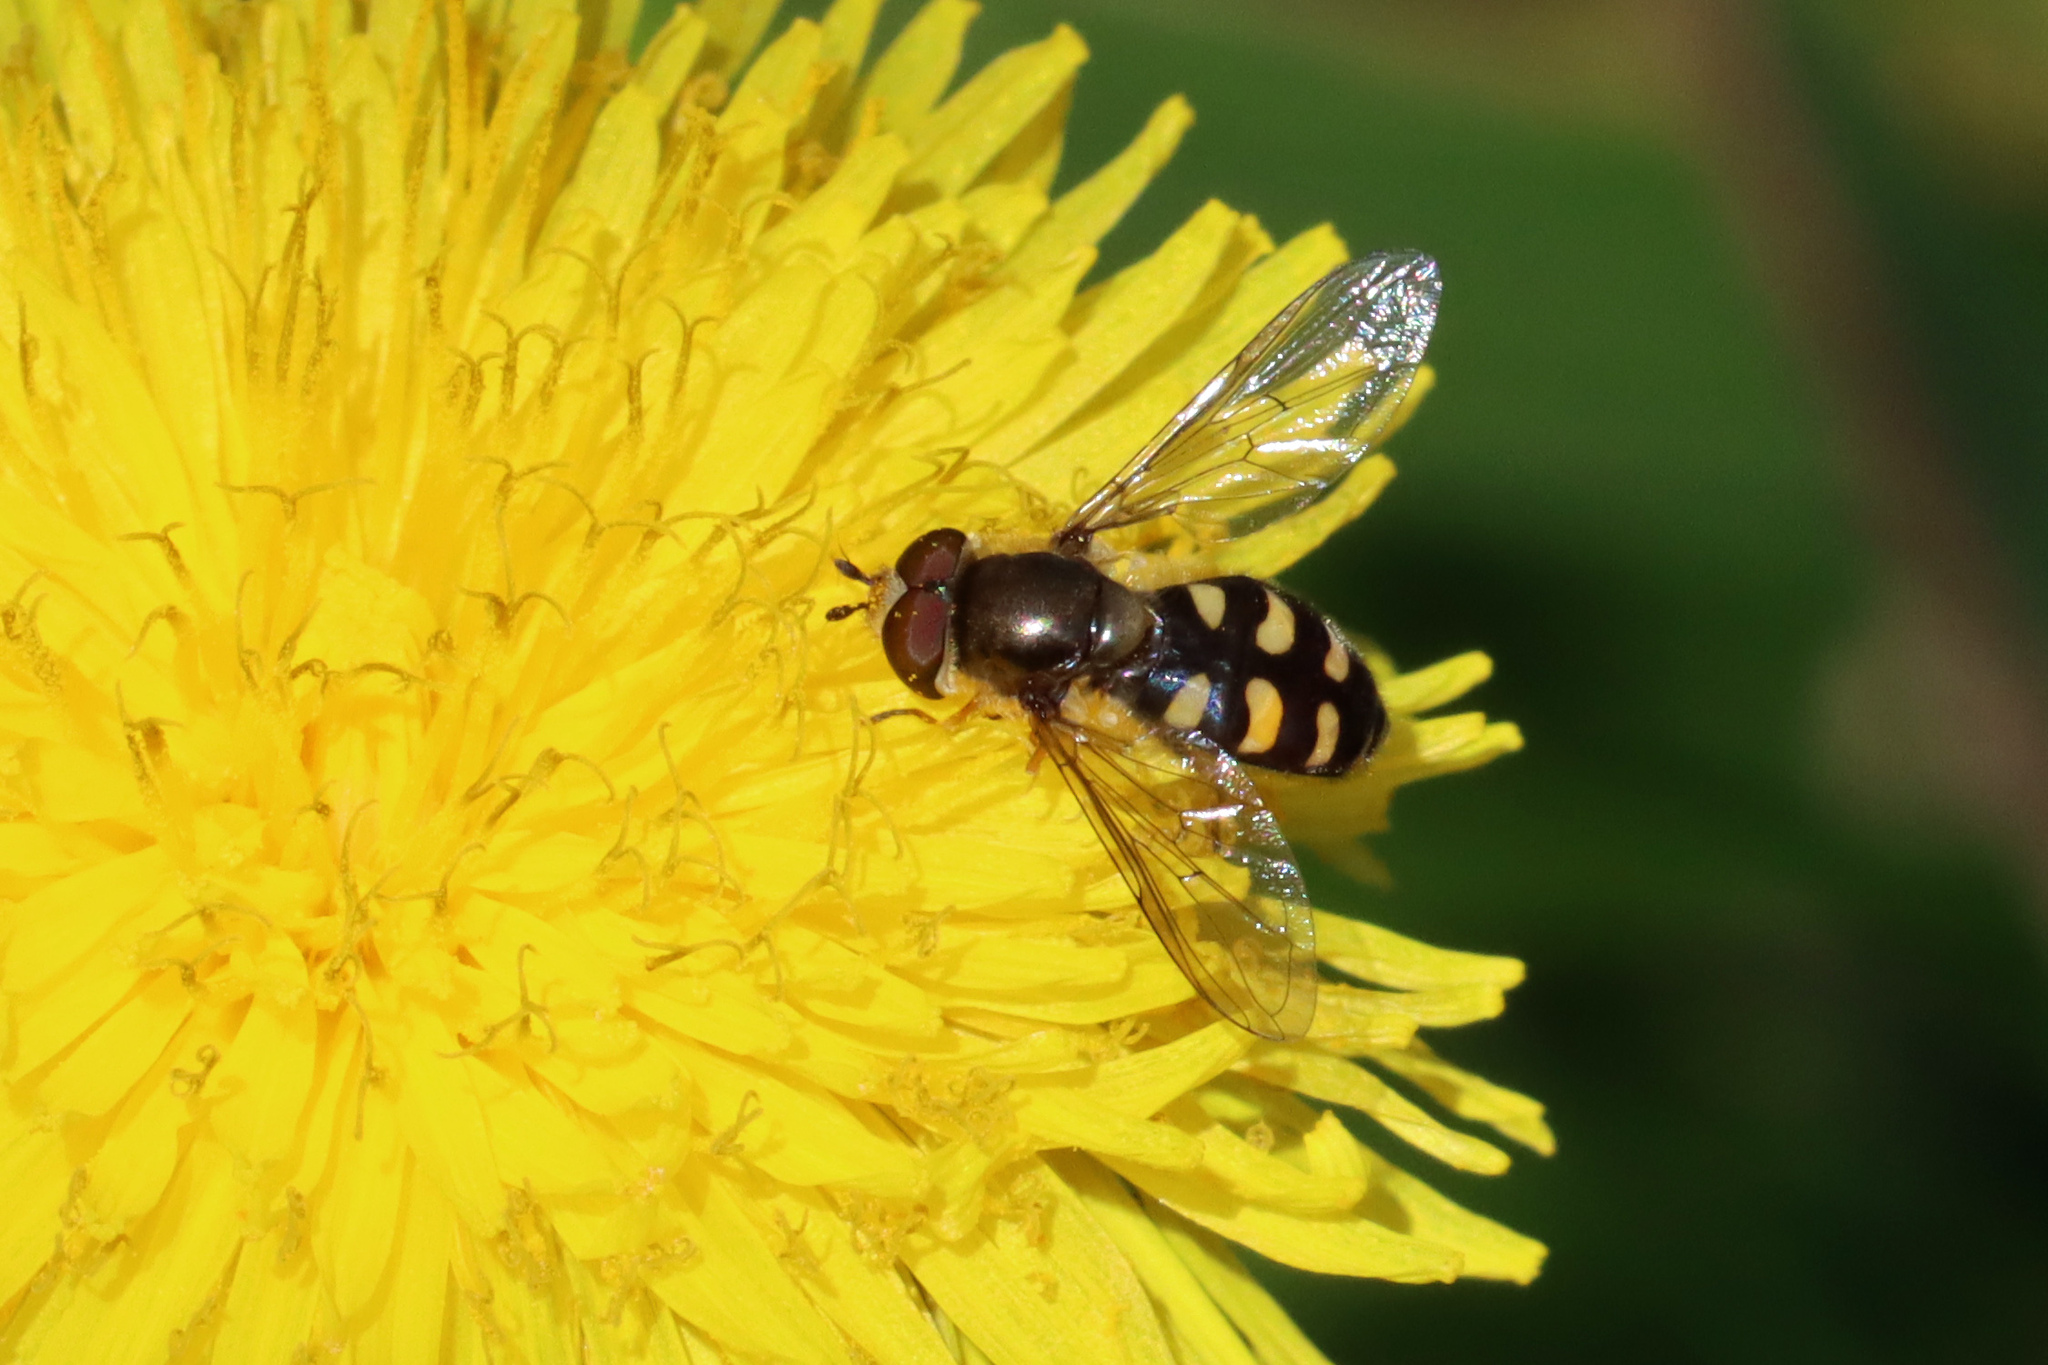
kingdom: Animalia
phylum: Arthropoda
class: Insecta
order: Diptera
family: Syrphidae
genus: Eupeodes
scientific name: Eupeodes
